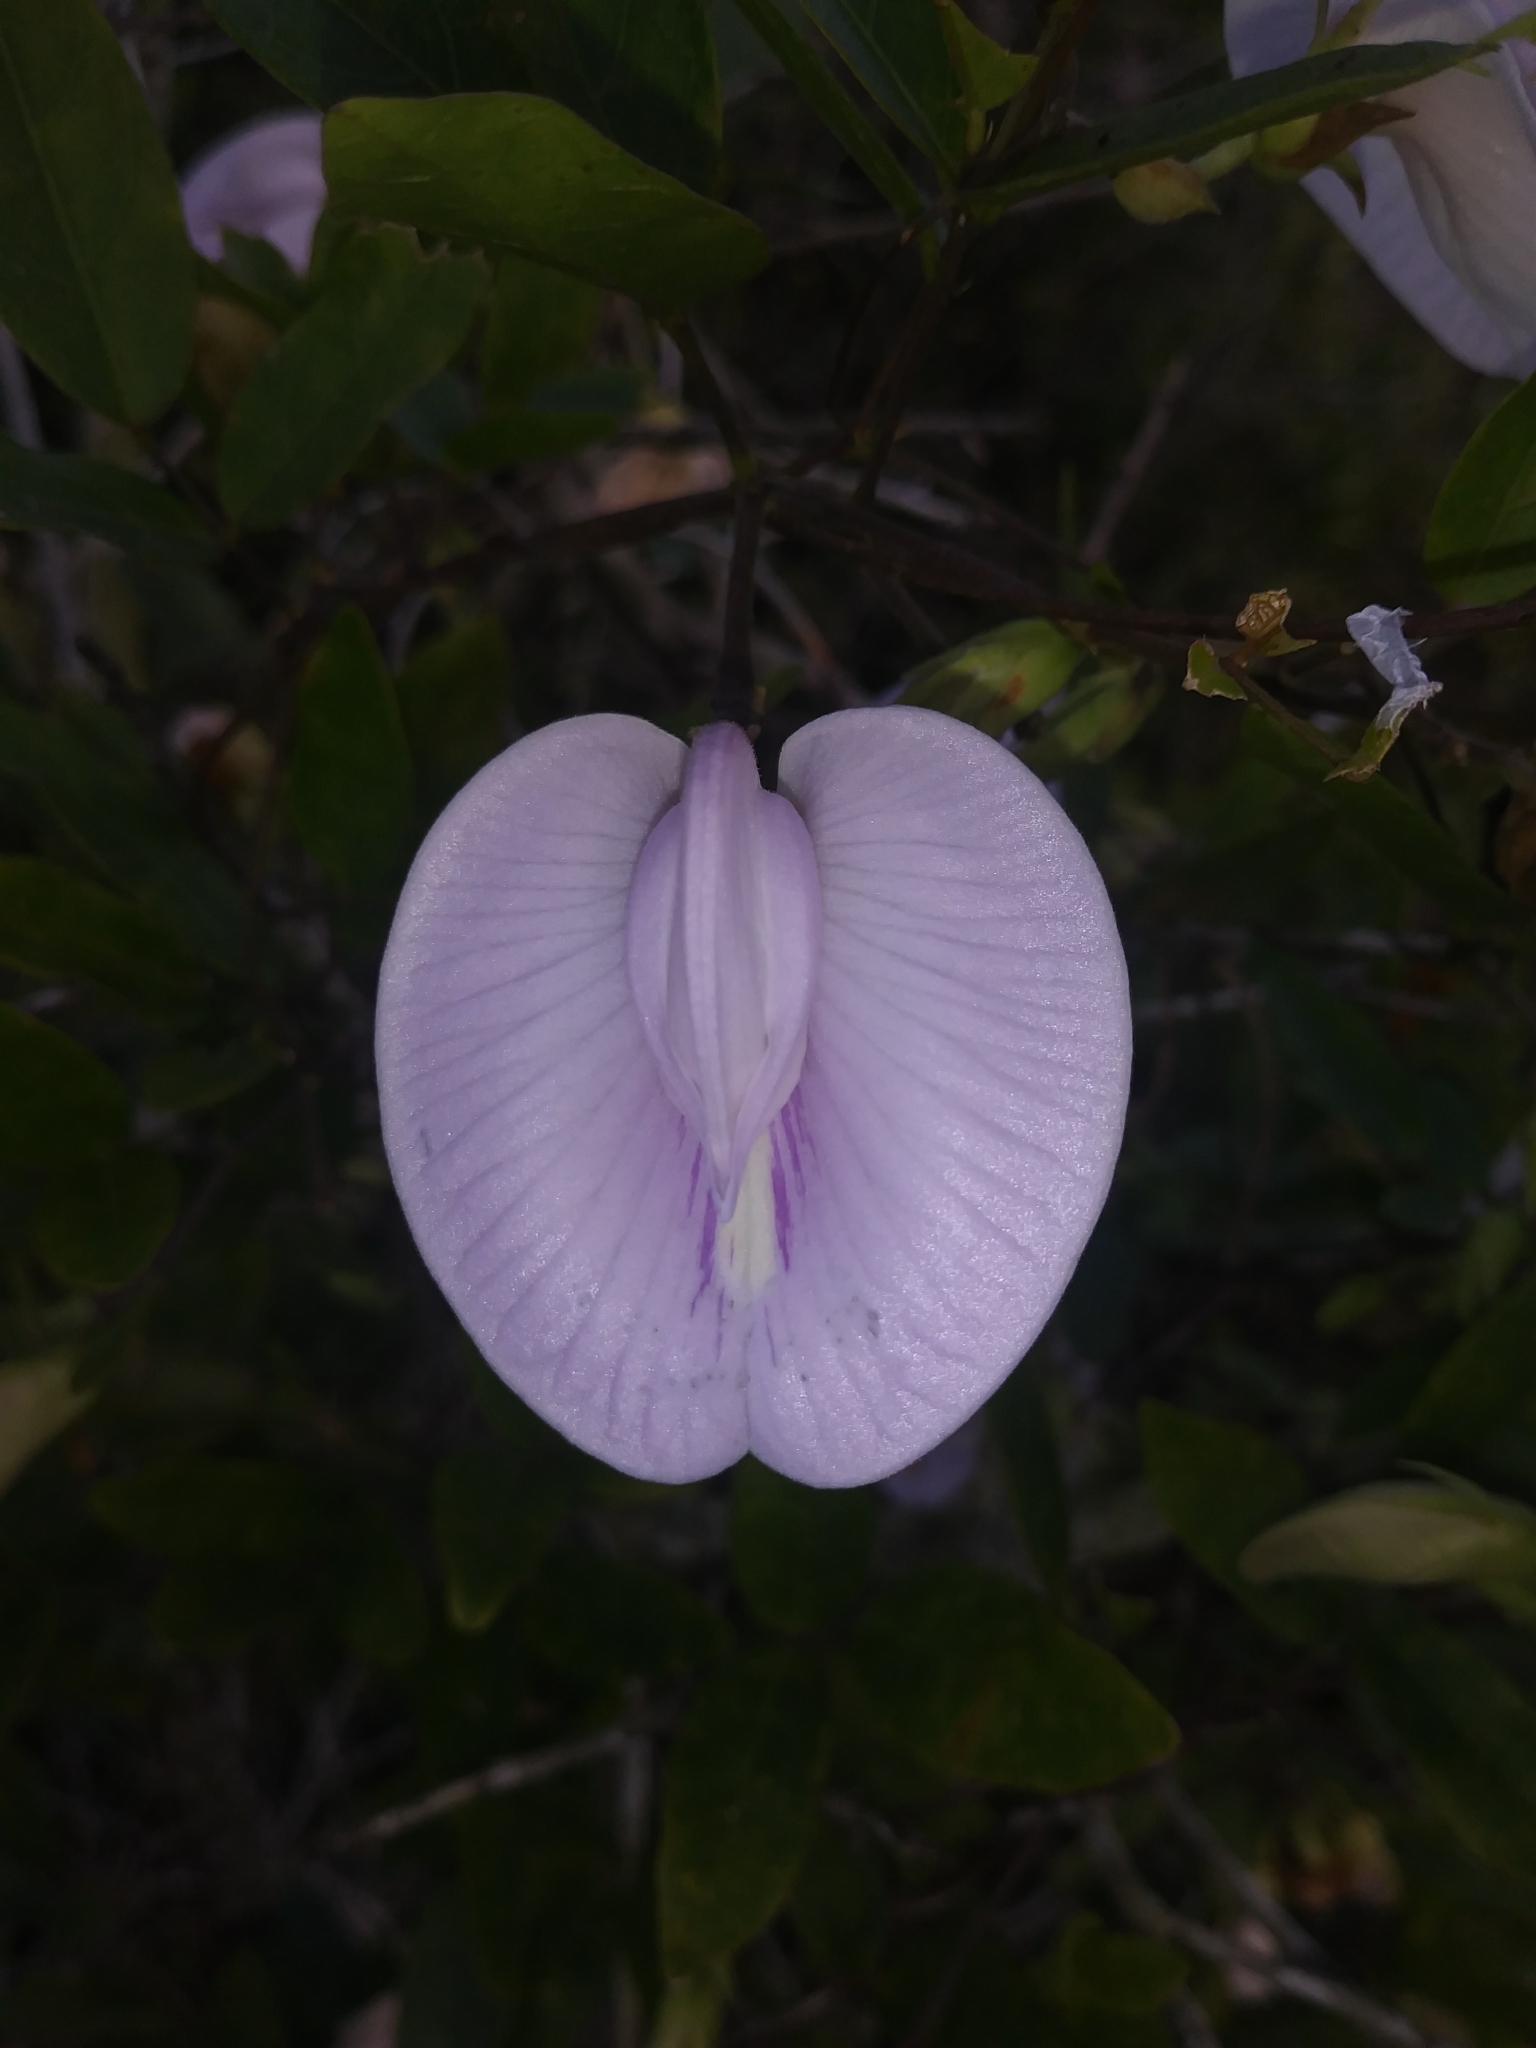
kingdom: Plantae
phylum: Tracheophyta
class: Magnoliopsida
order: Fabales
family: Fabaceae
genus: Centrosema
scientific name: Centrosema virginianum
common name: Butterfly-pea
